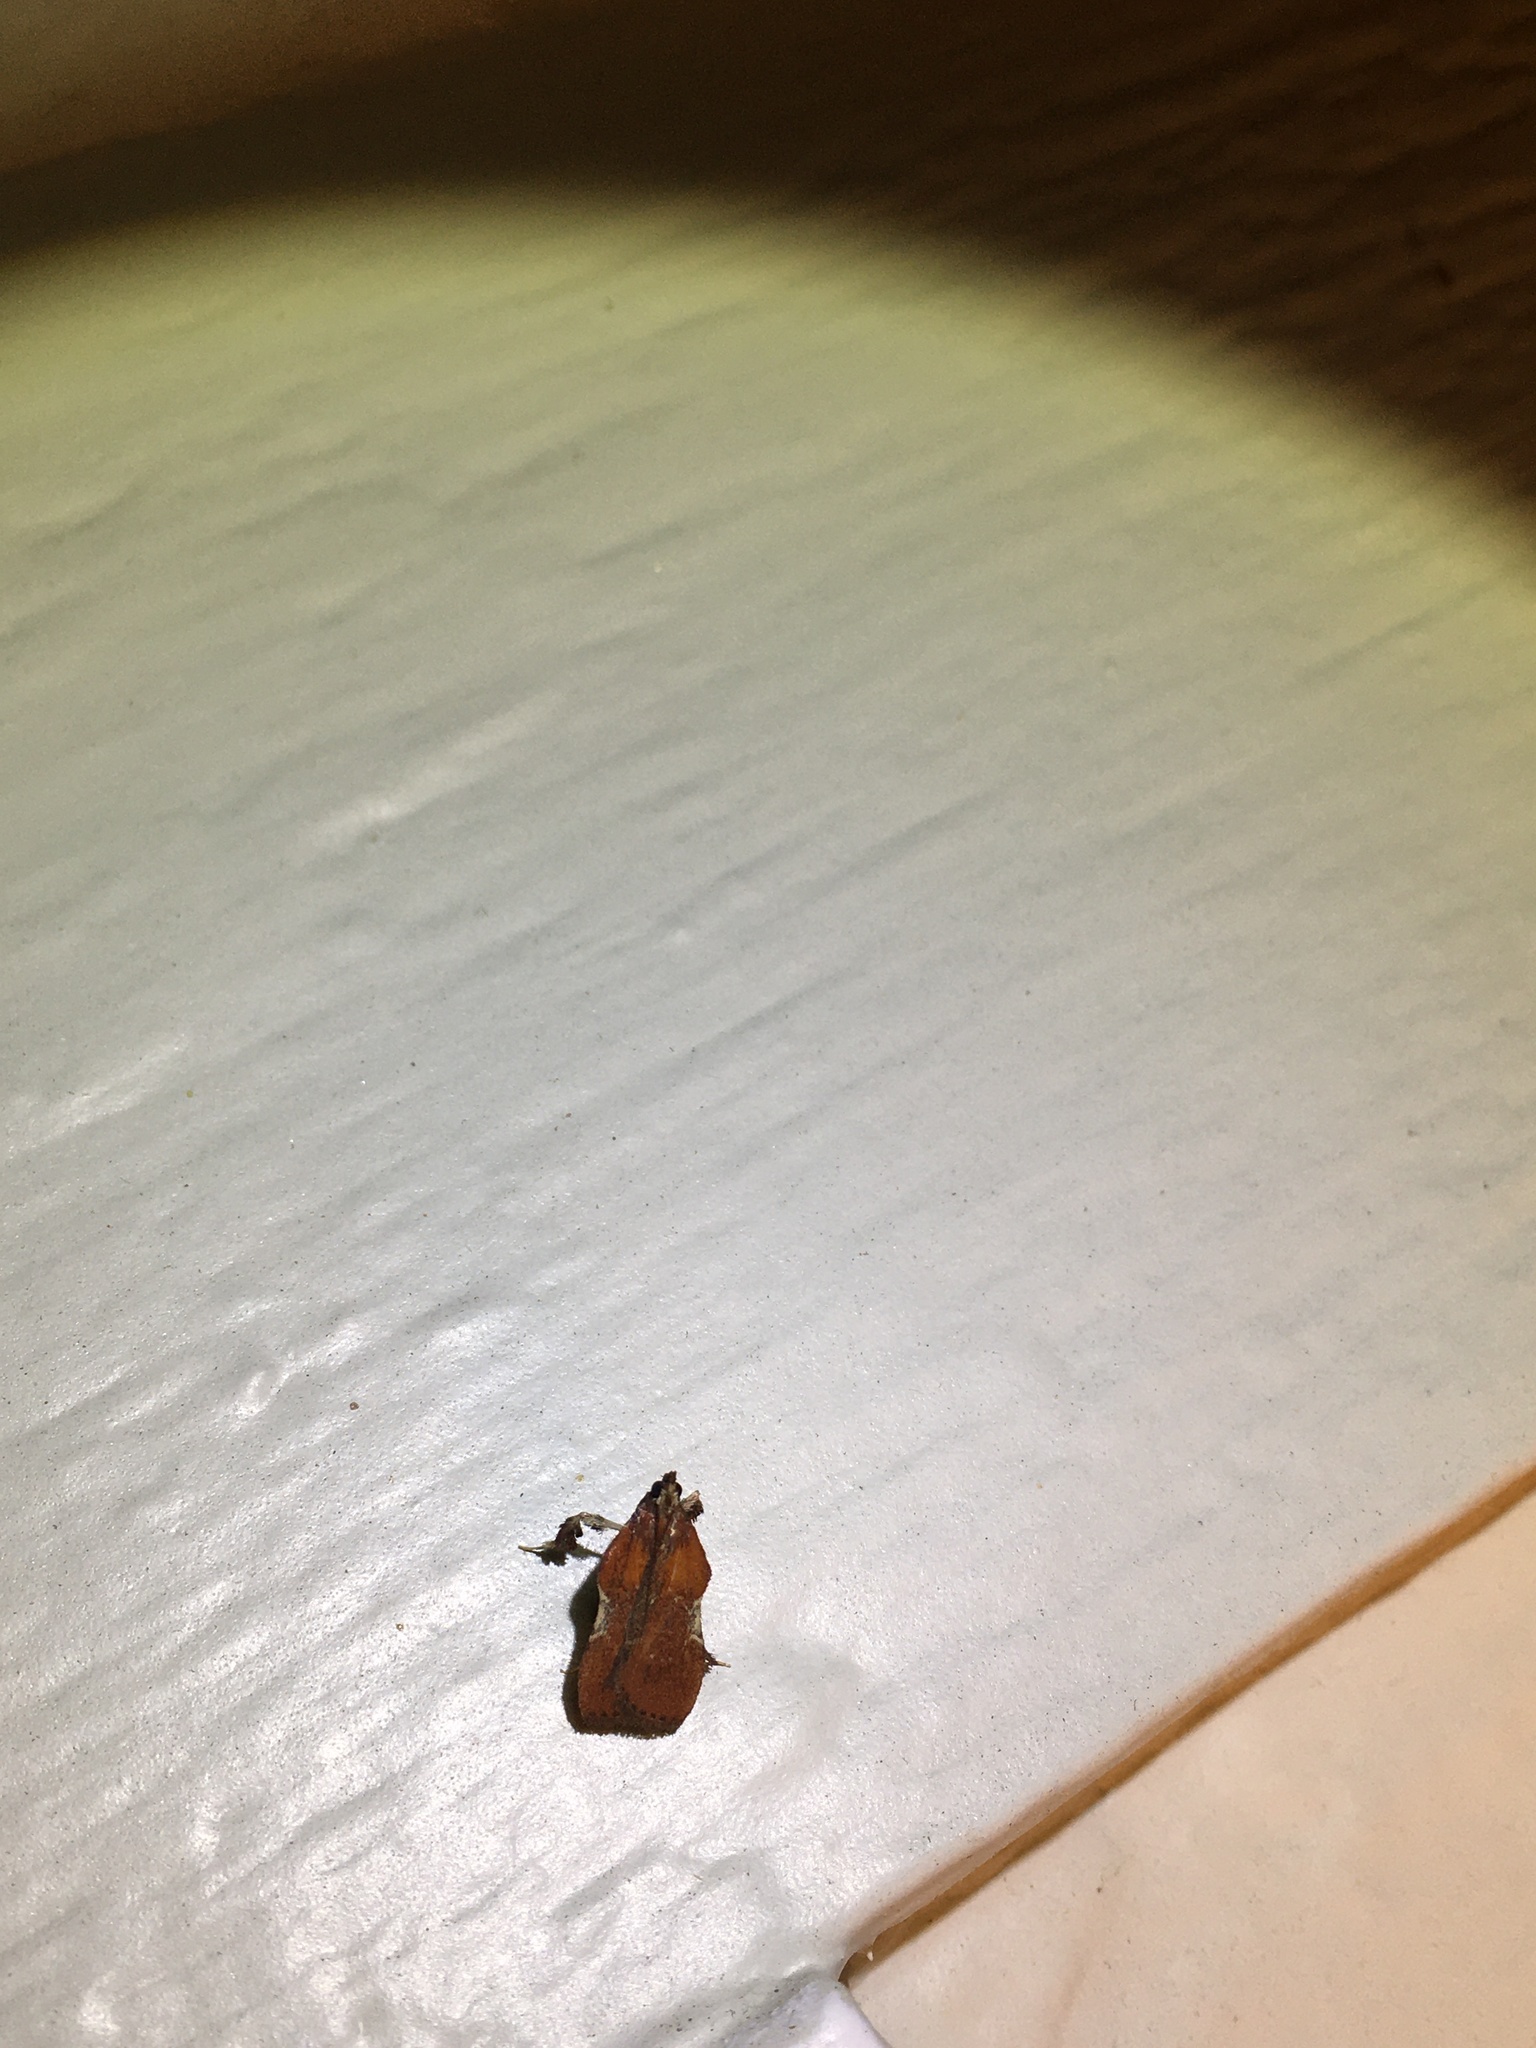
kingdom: Animalia
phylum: Arthropoda
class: Insecta
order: Lepidoptera
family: Pyralidae
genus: Galasa
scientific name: Galasa nigrinodis
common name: Boxwood leaftier moth
